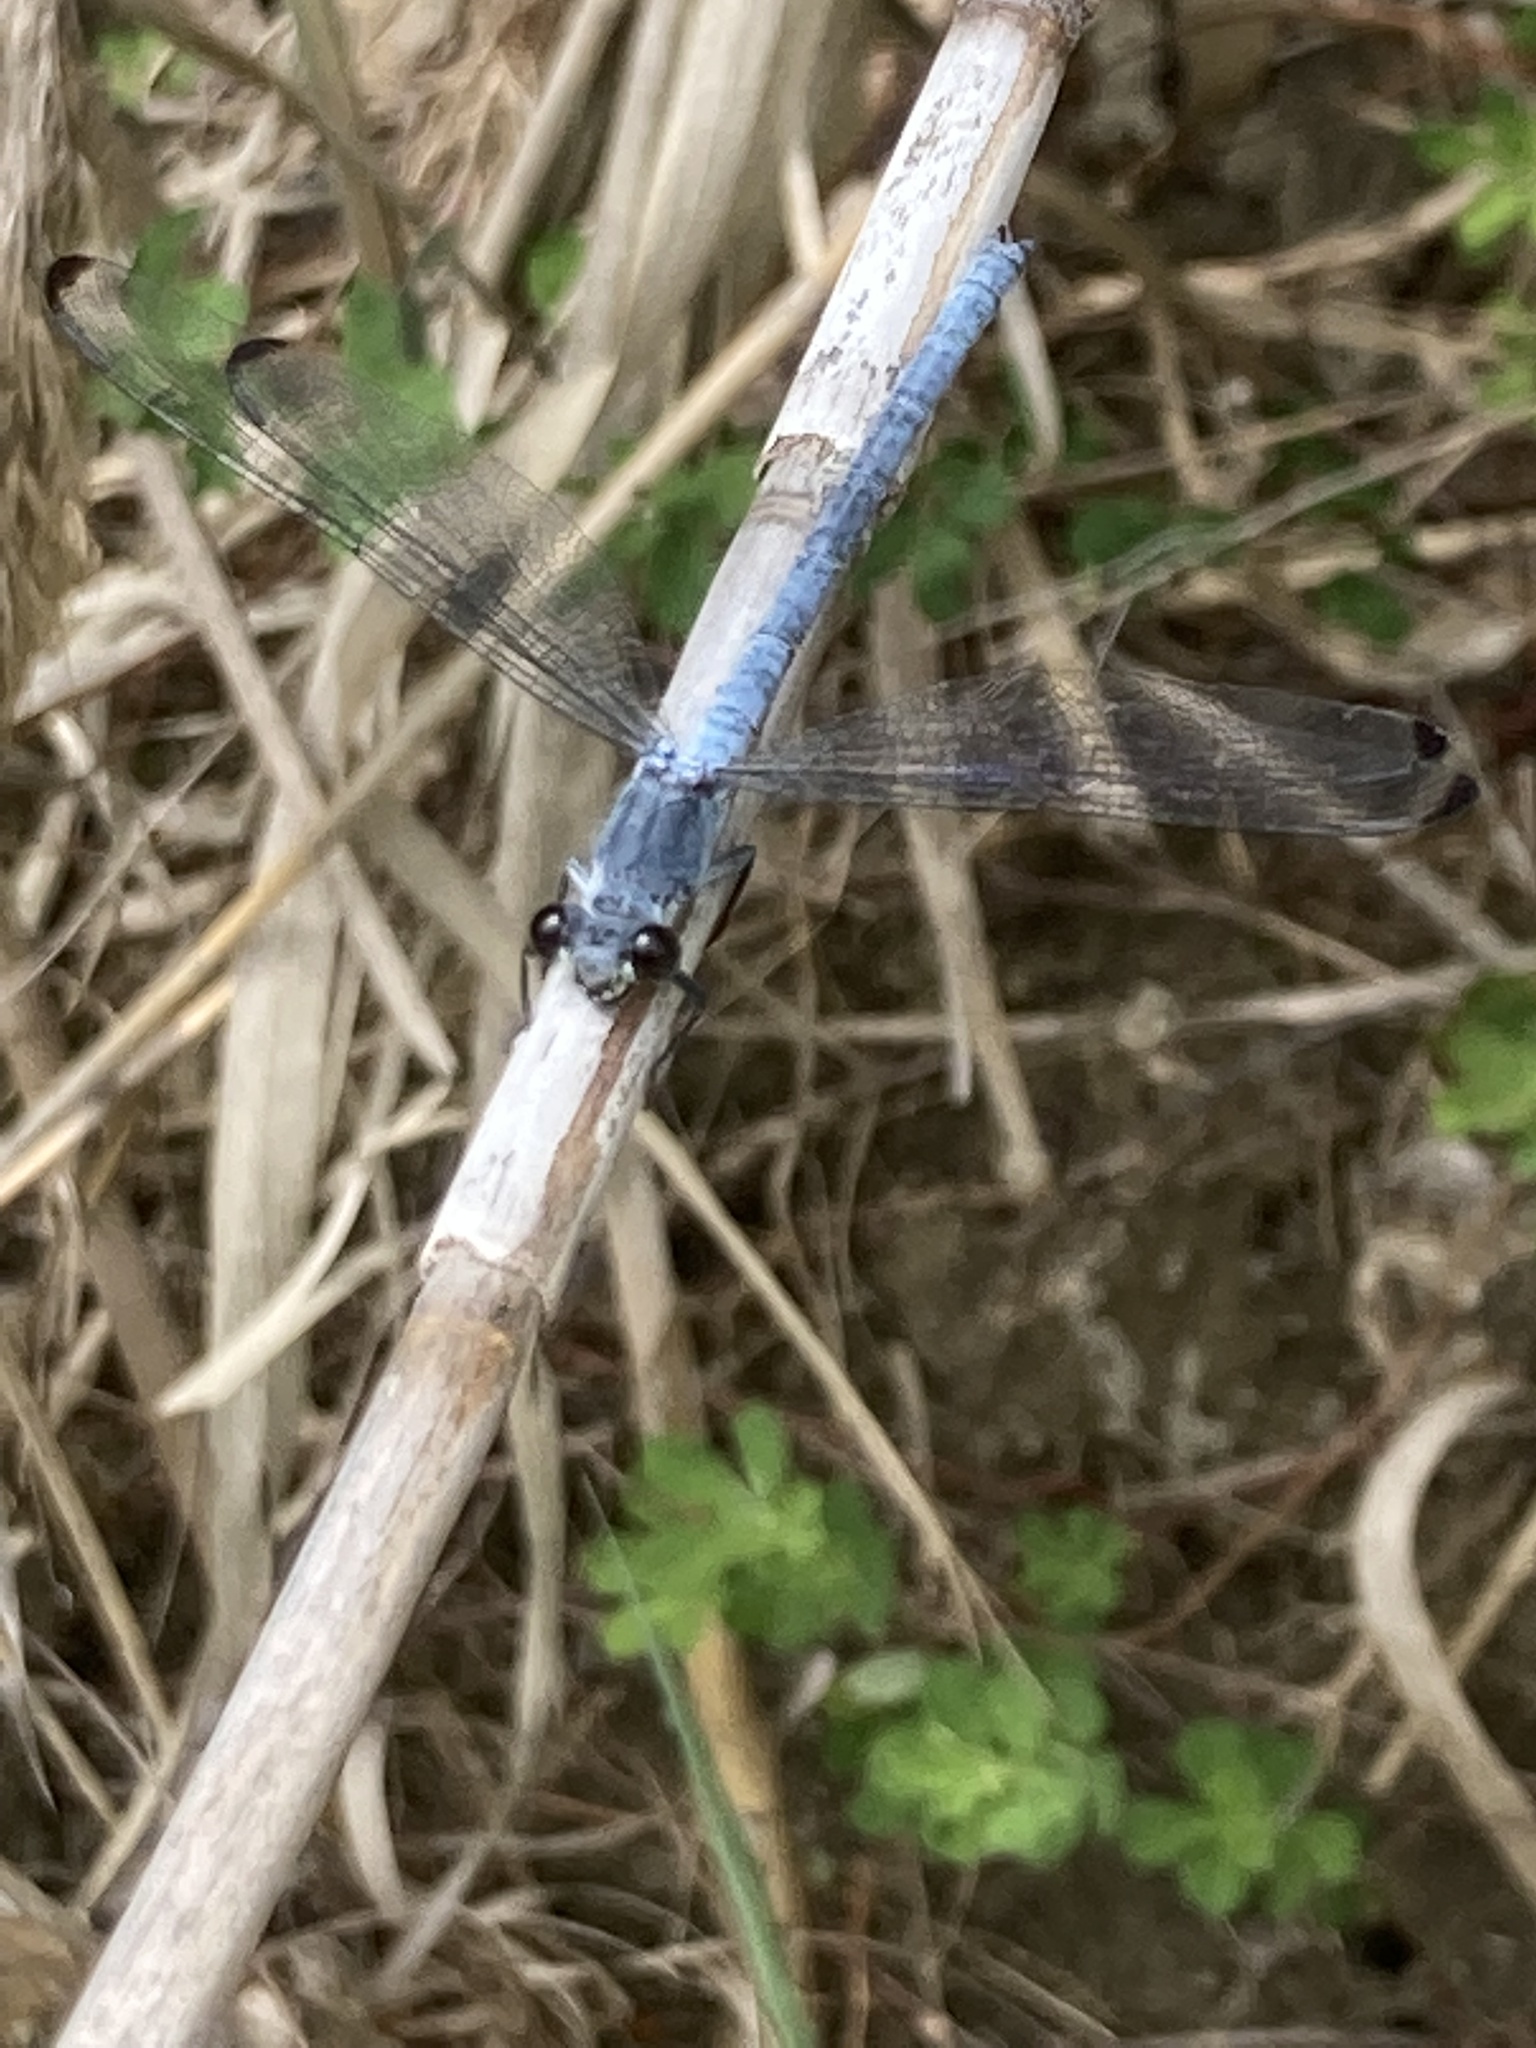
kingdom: Animalia
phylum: Arthropoda
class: Insecta
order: Odonata
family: Euphaeidae
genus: Epallage
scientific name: Epallage fatime
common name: Odalisque
